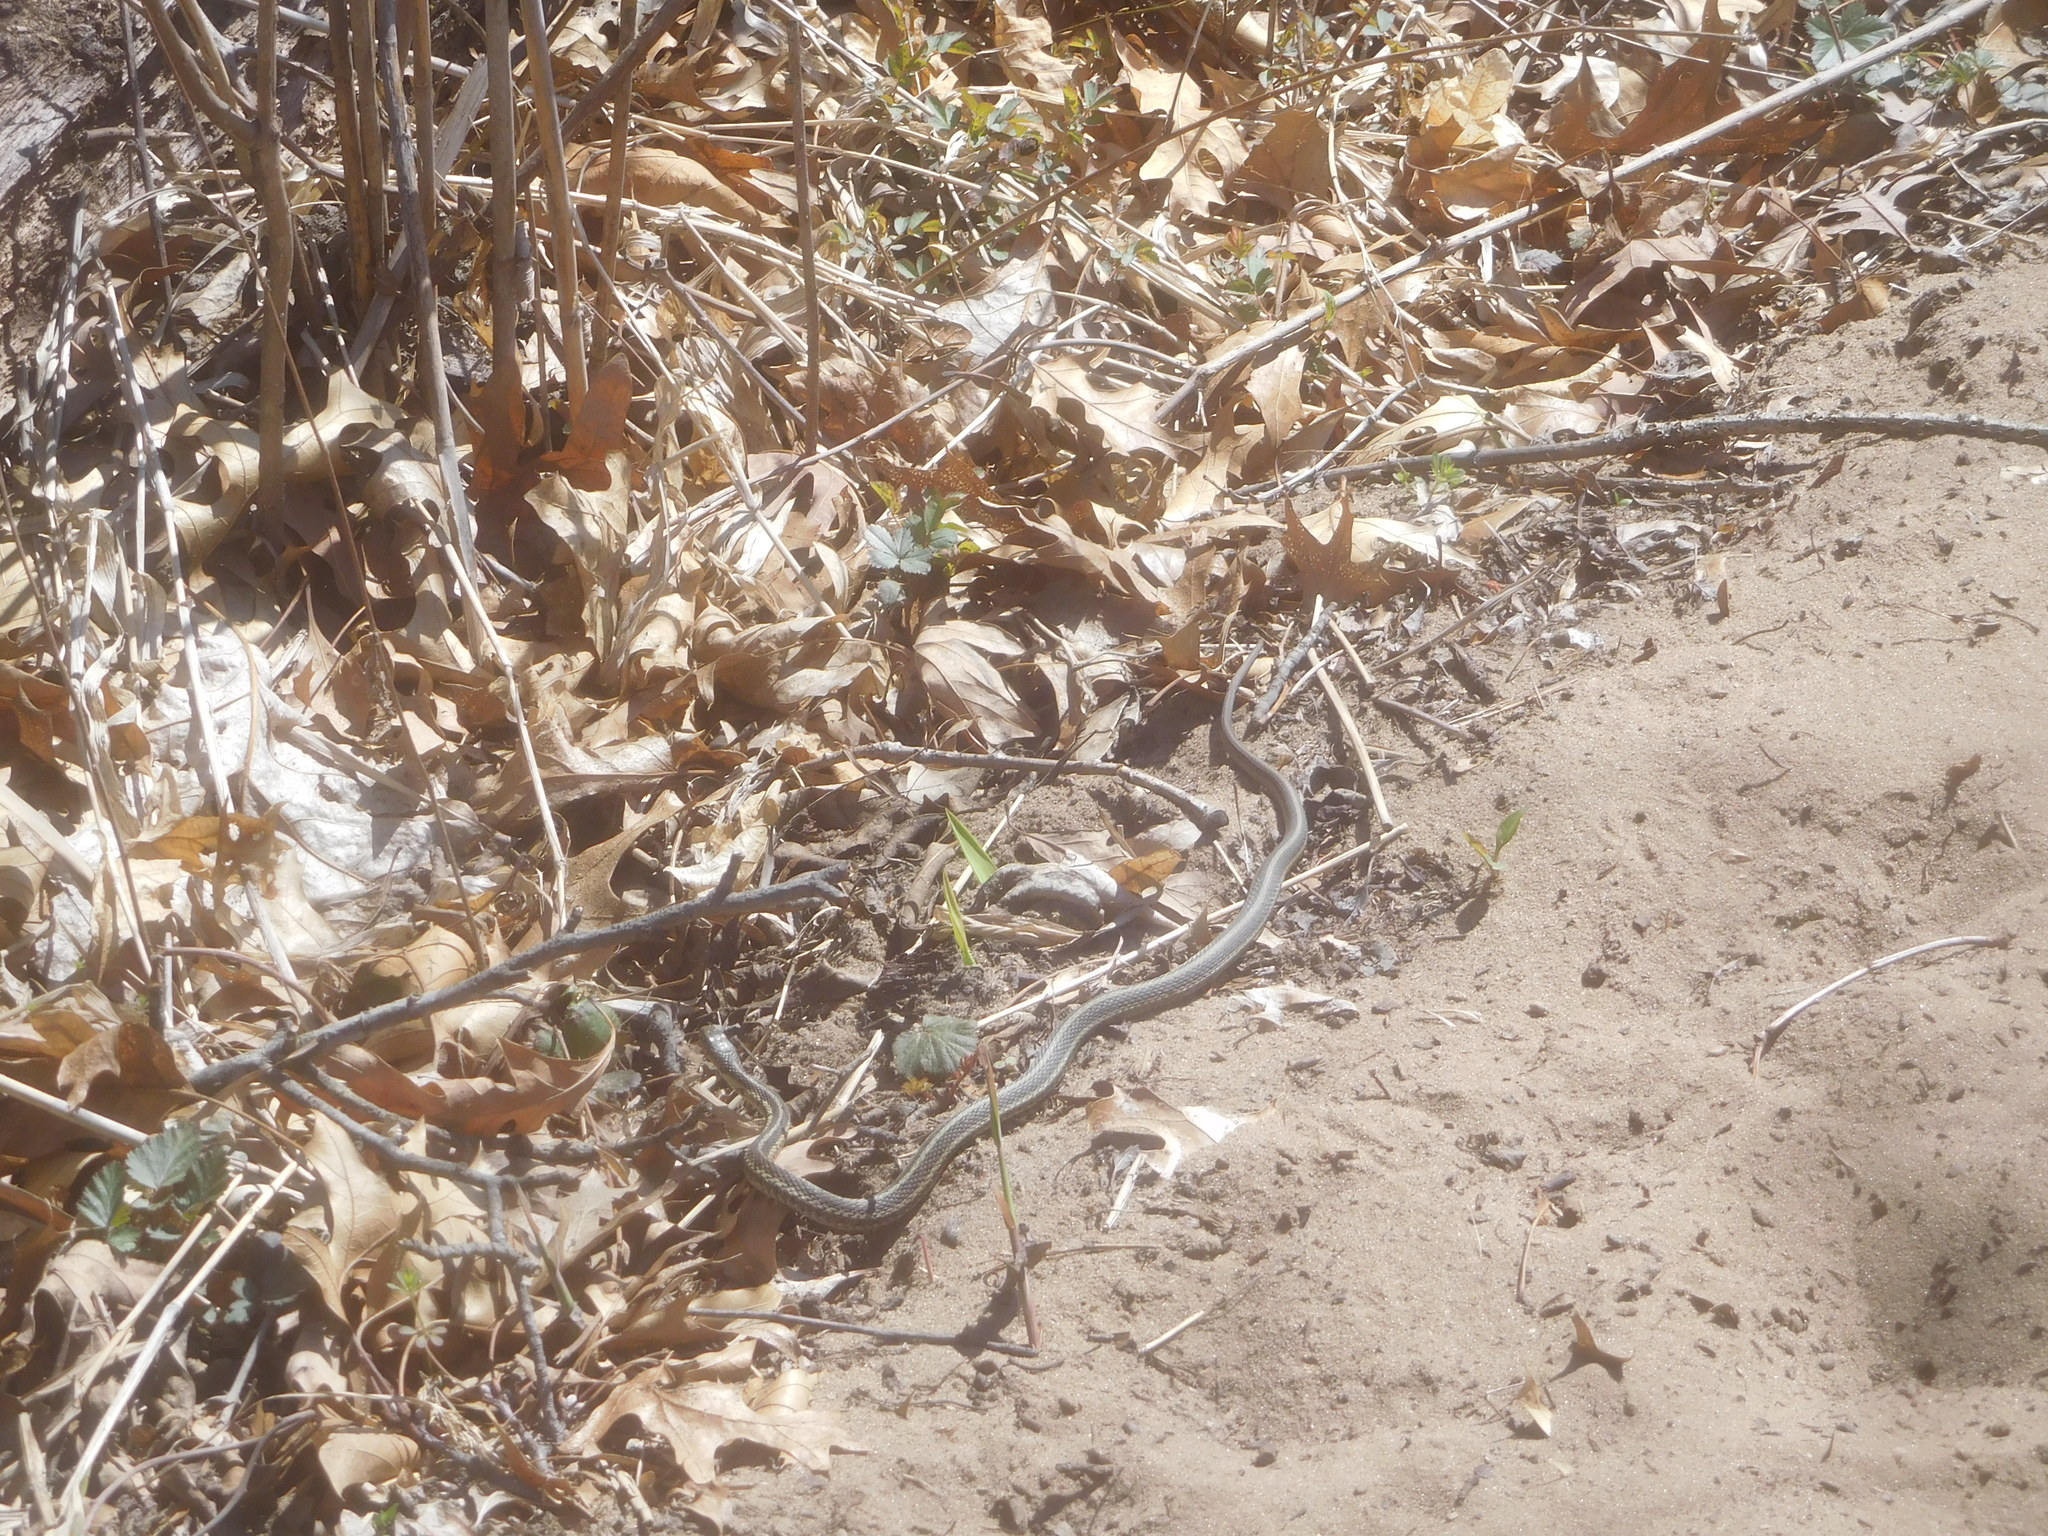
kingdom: Animalia
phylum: Chordata
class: Squamata
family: Colubridae
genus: Thamnophis
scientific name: Thamnophis sirtalis
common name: Common garter snake
